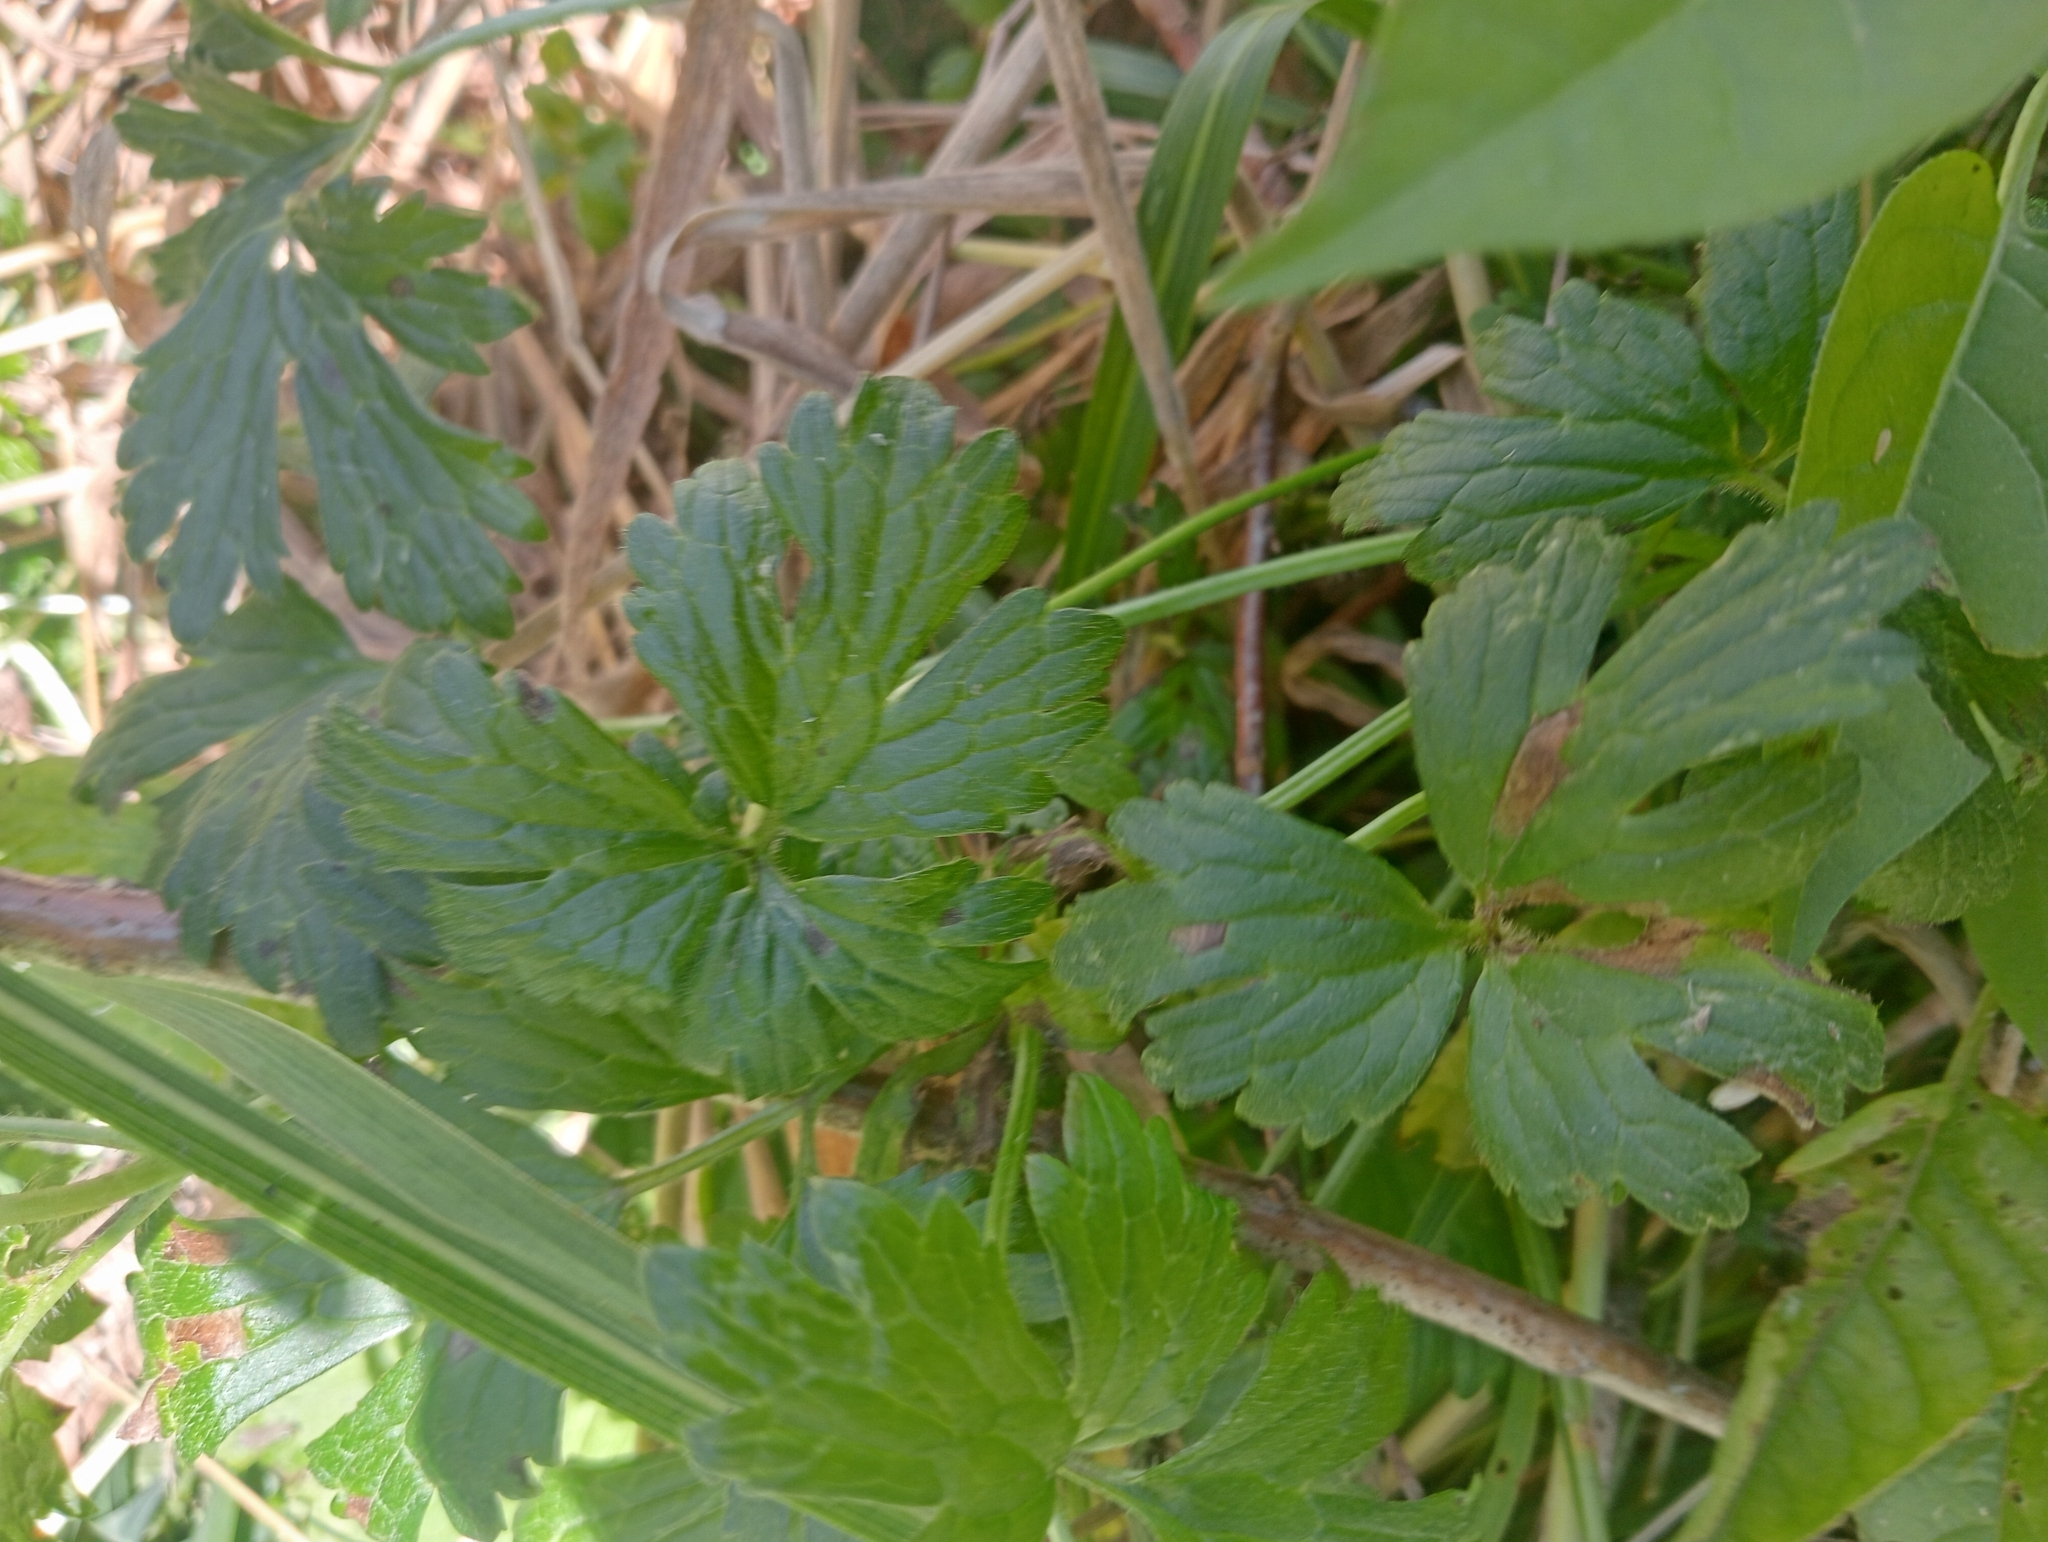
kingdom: Plantae
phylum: Tracheophyta
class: Magnoliopsida
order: Ranunculales
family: Ranunculaceae
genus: Ranunculus
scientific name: Ranunculus repens
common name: Creeping buttercup
